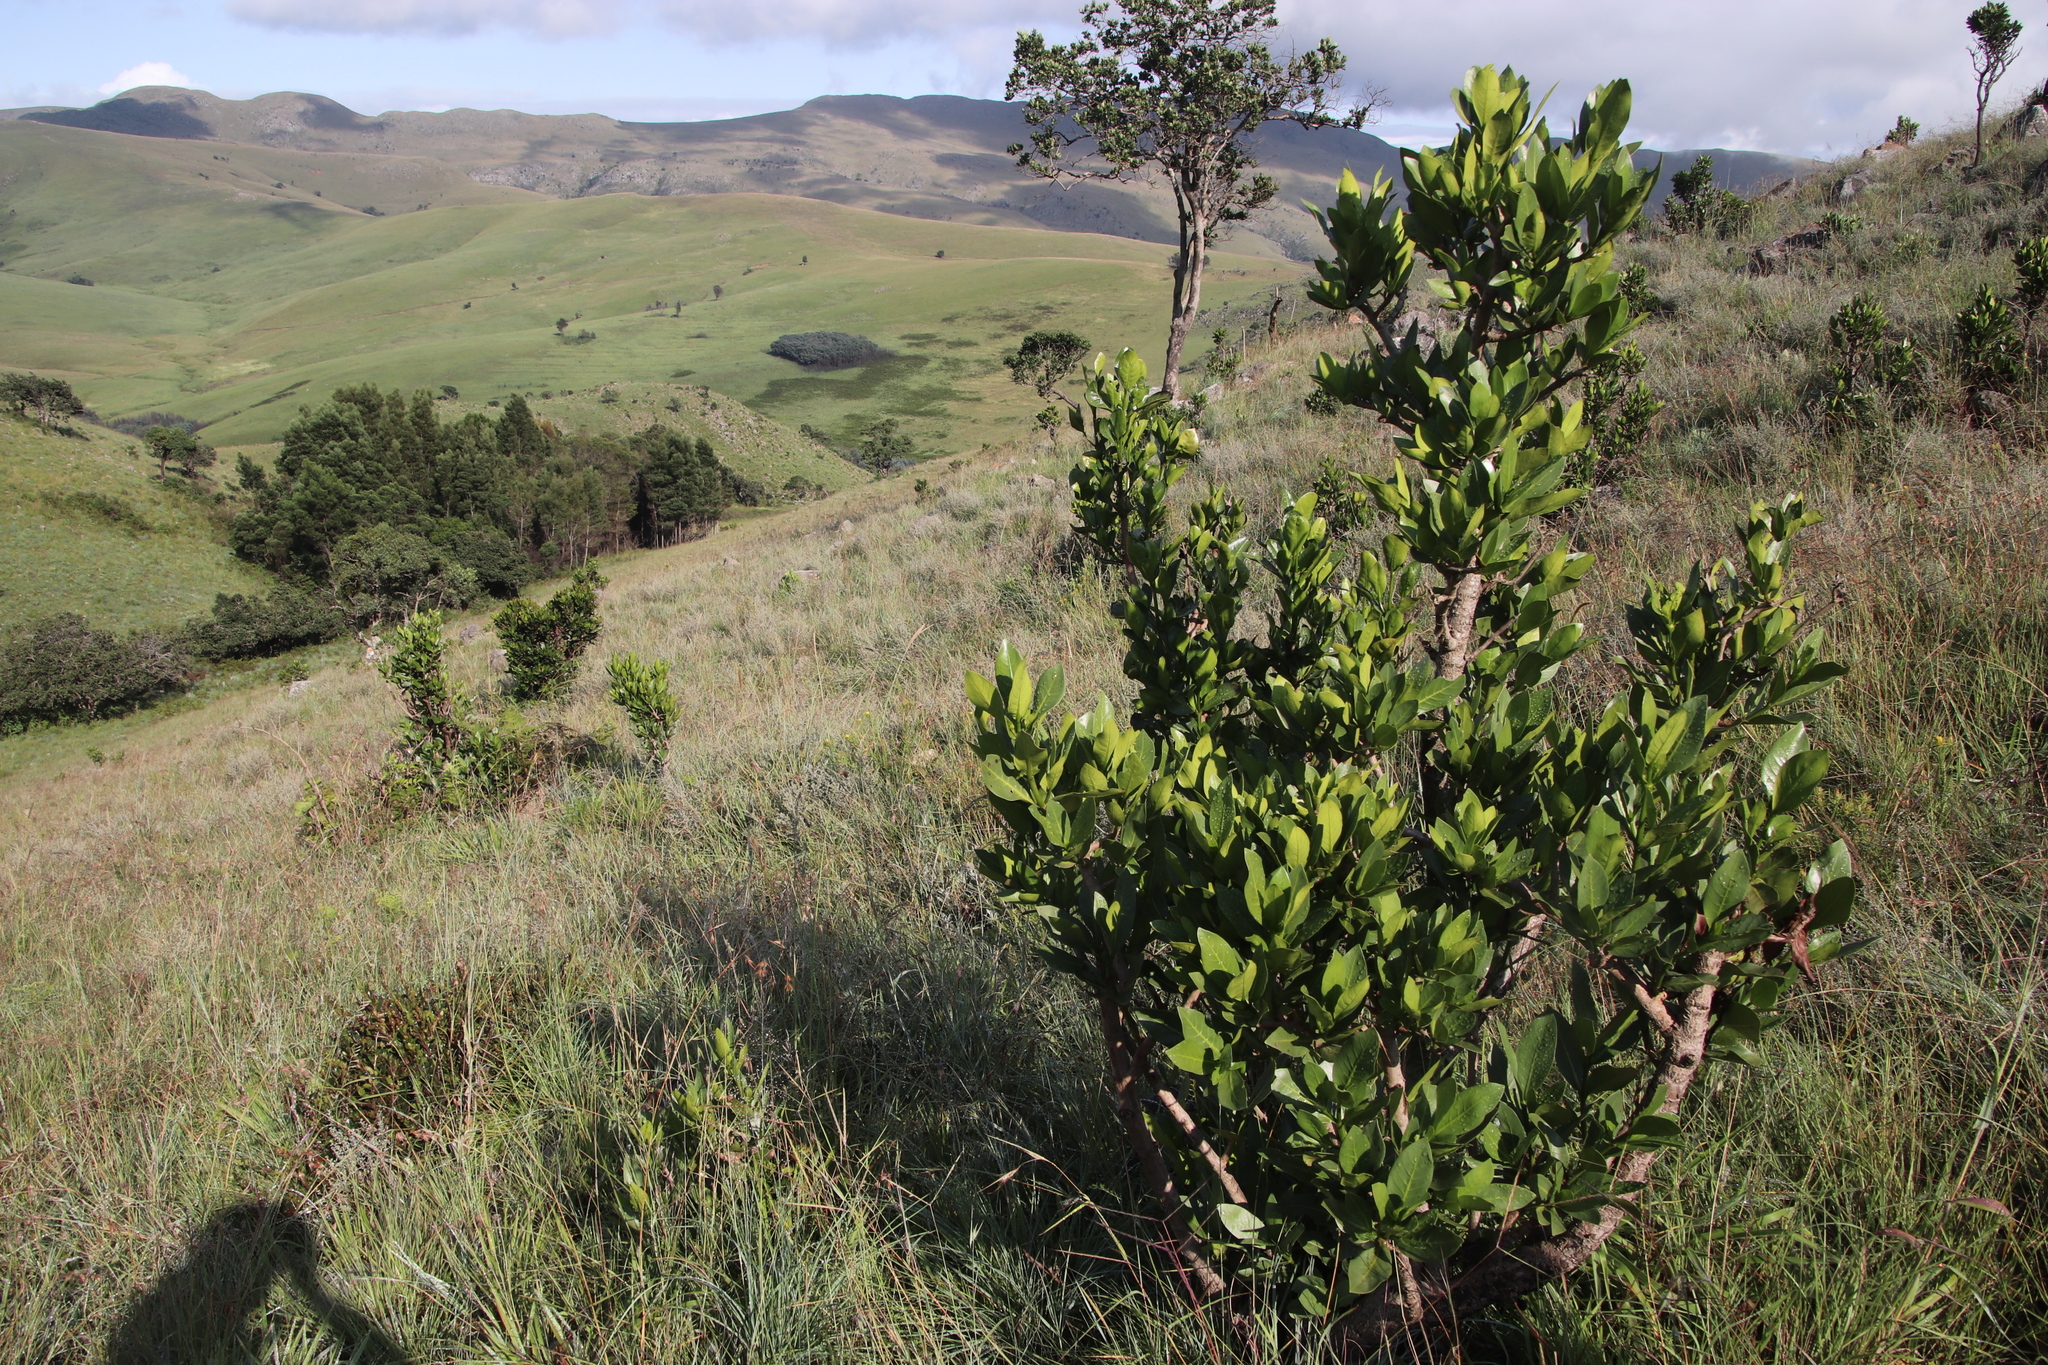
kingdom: Plantae
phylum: Tracheophyta
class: Magnoliopsida
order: Gentianales
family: Rubiaceae
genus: Psychotria
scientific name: Psychotria
